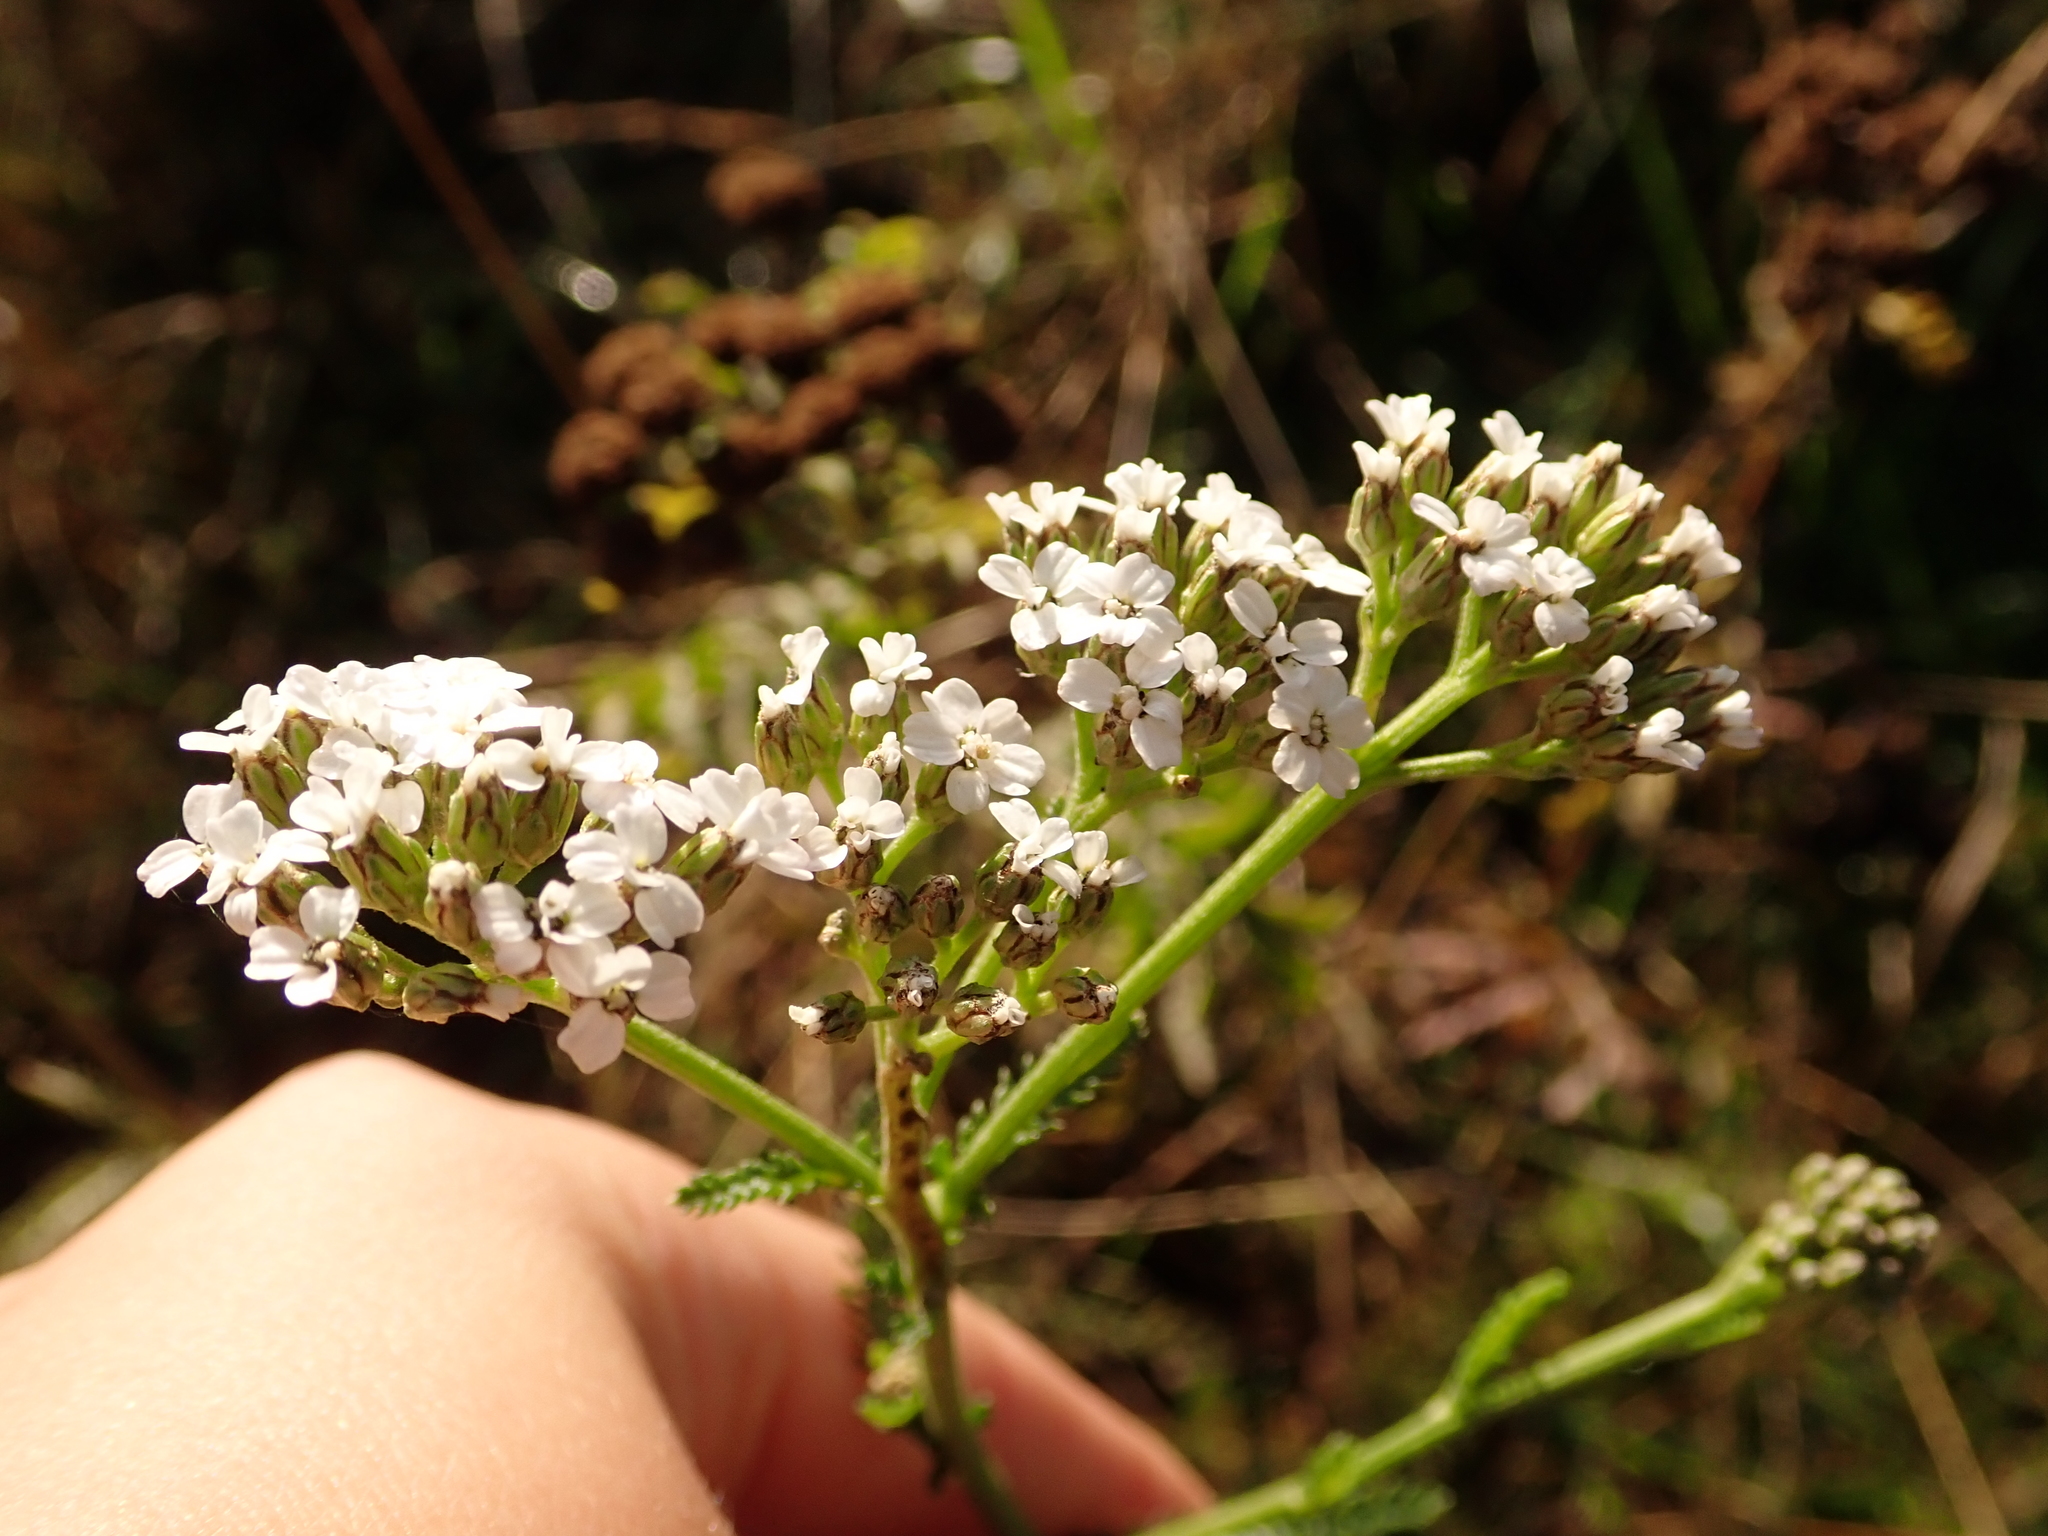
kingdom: Plantae
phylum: Tracheophyta
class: Magnoliopsida
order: Asterales
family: Asteraceae
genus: Achillea
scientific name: Achillea millefolium
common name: Yarrow
